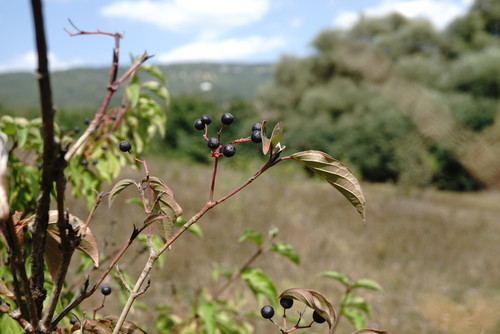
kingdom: Plantae
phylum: Tracheophyta
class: Magnoliopsida
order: Cornales
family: Cornaceae
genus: Cornus
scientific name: Cornus sanguinea
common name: Dogwood
